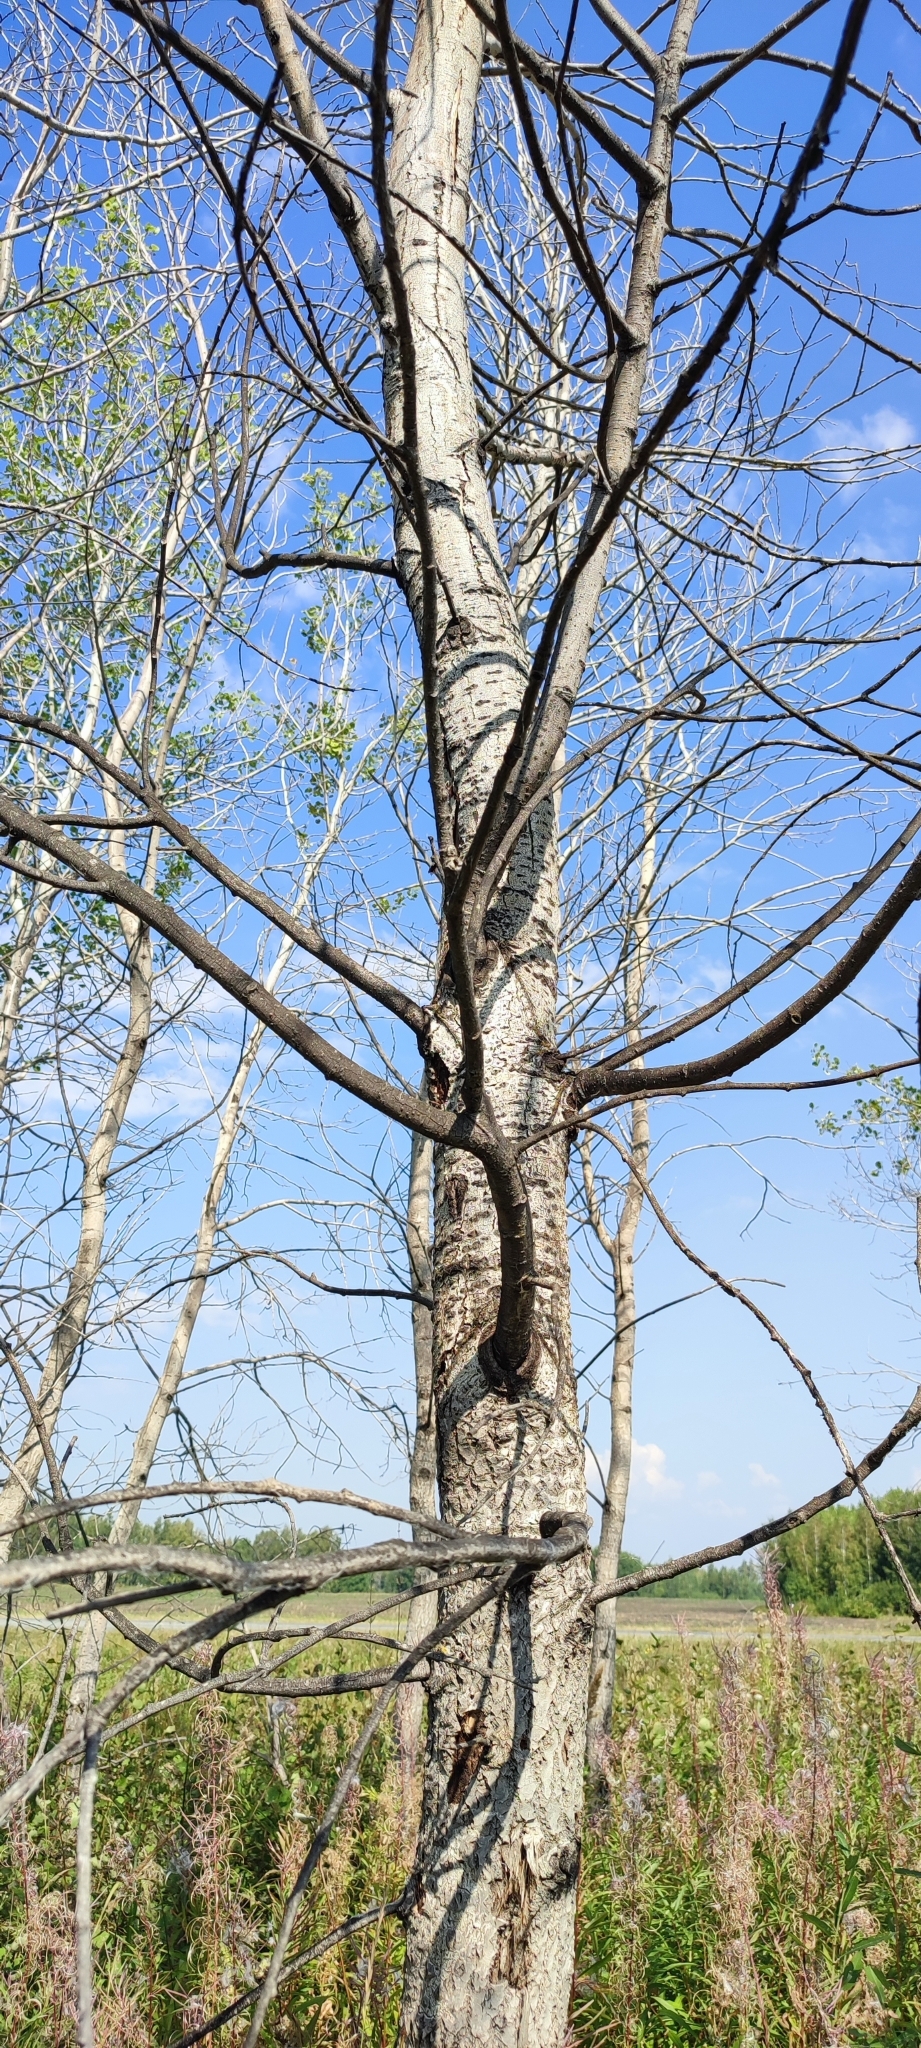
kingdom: Plantae
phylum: Tracheophyta
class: Magnoliopsida
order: Malpighiales
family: Salicaceae
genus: Populus
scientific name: Populus tremula
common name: European aspen
